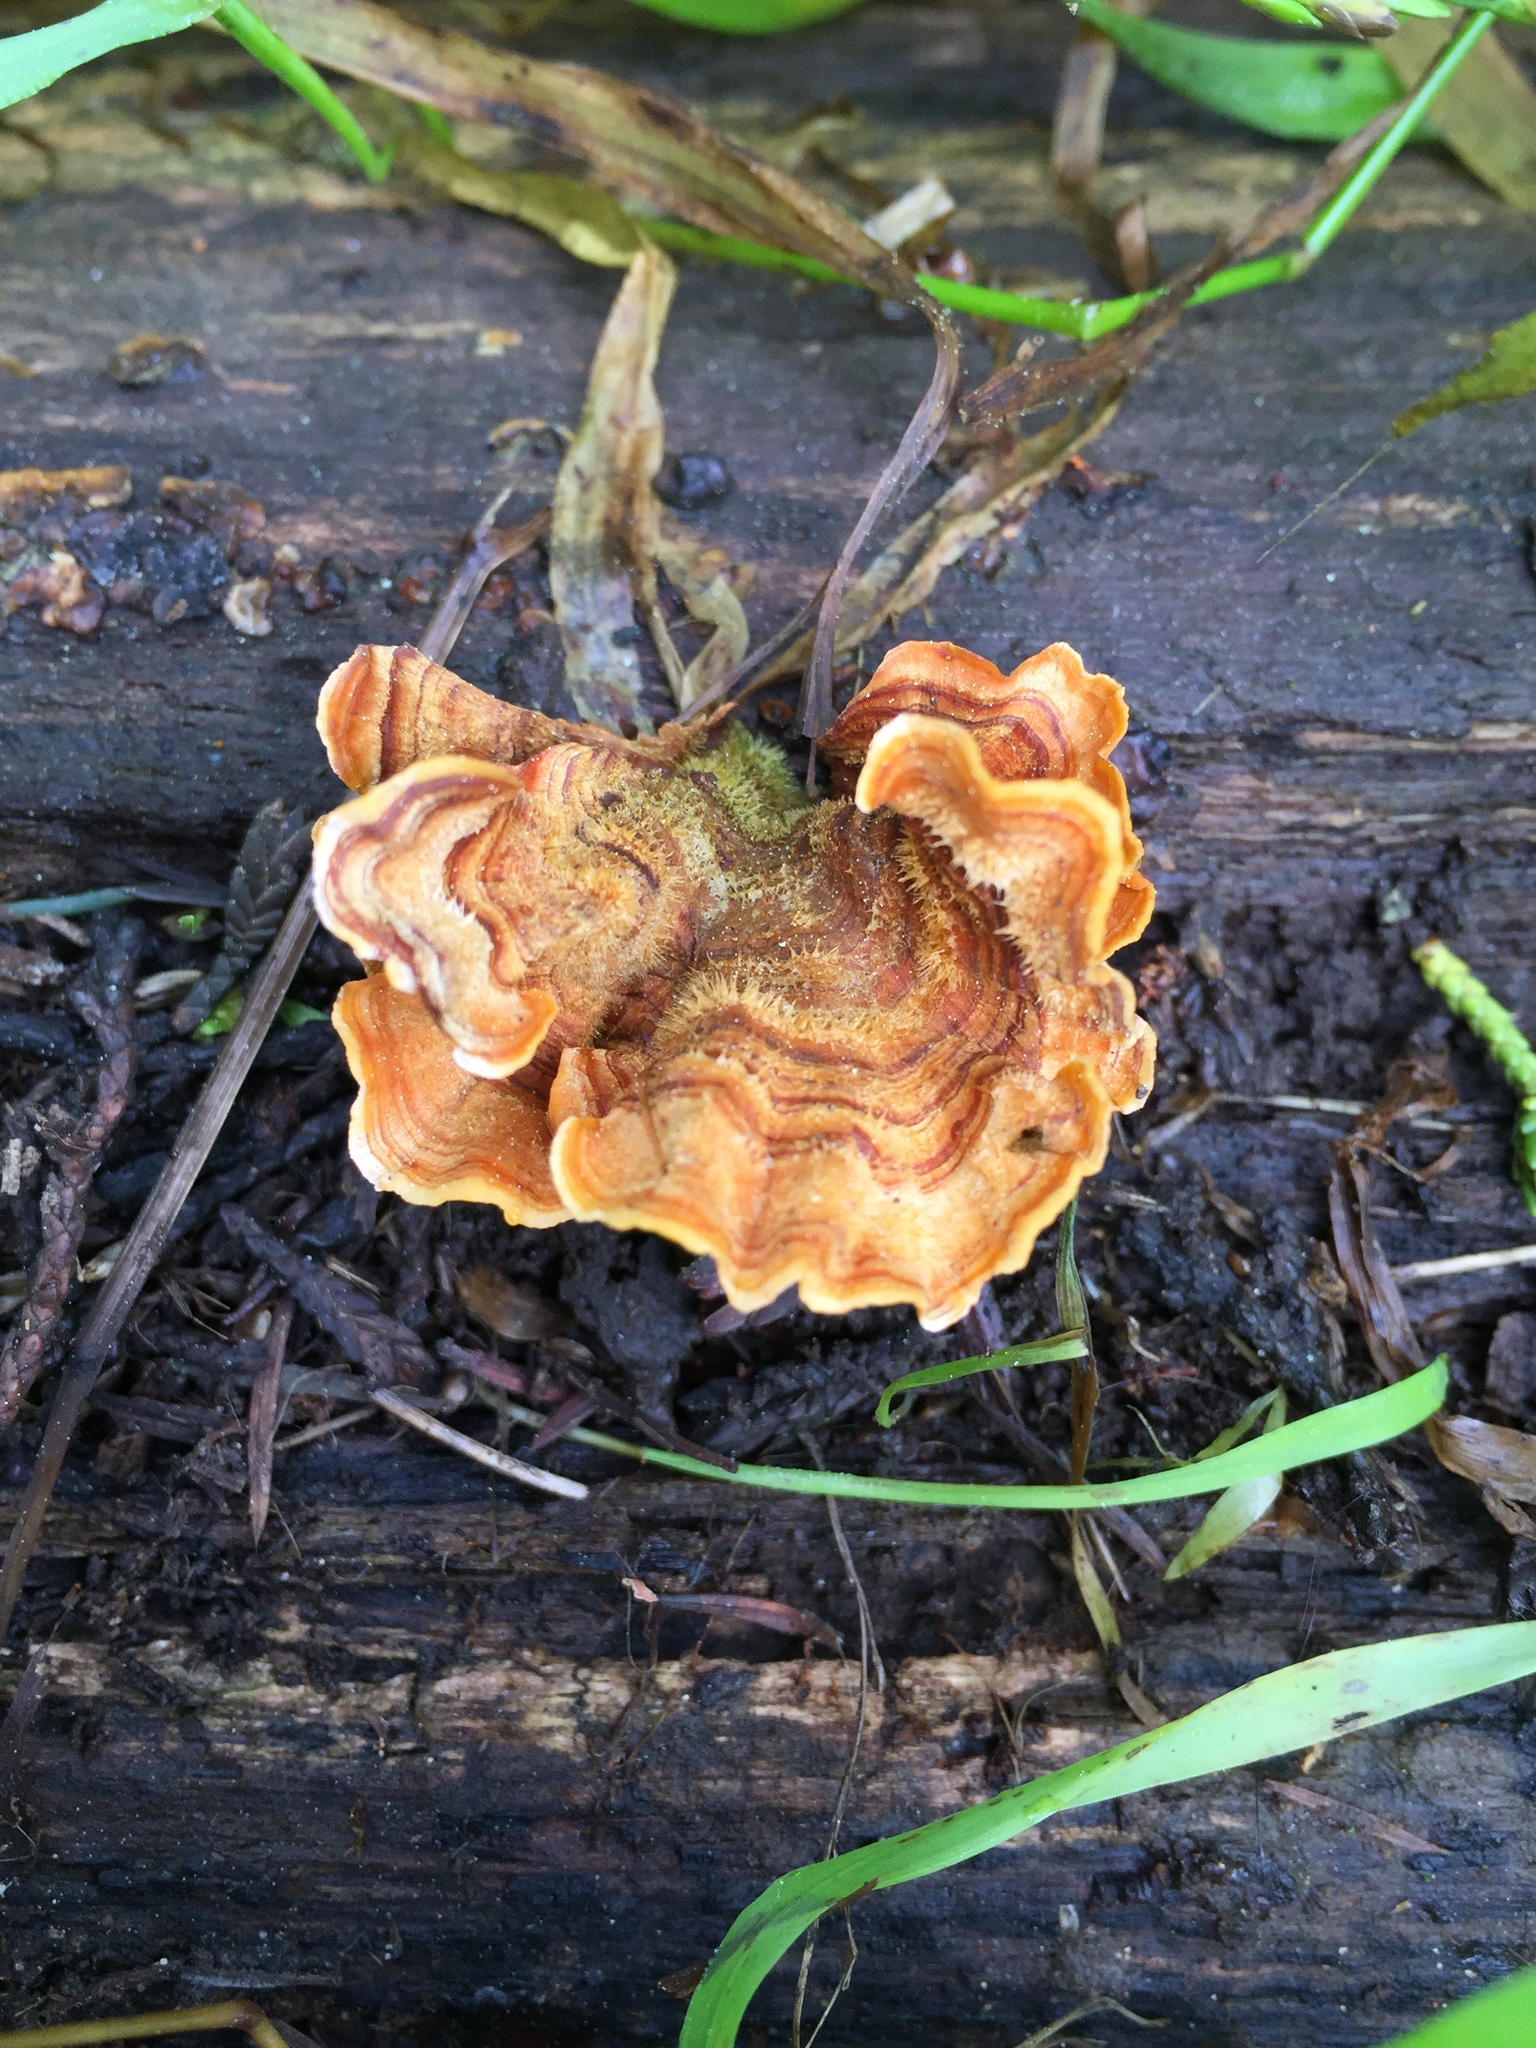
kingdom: Fungi
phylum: Basidiomycota
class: Agaricomycetes
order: Russulales
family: Stereaceae
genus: Stereum
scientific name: Stereum hirsutum
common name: Hairy curtain crust
